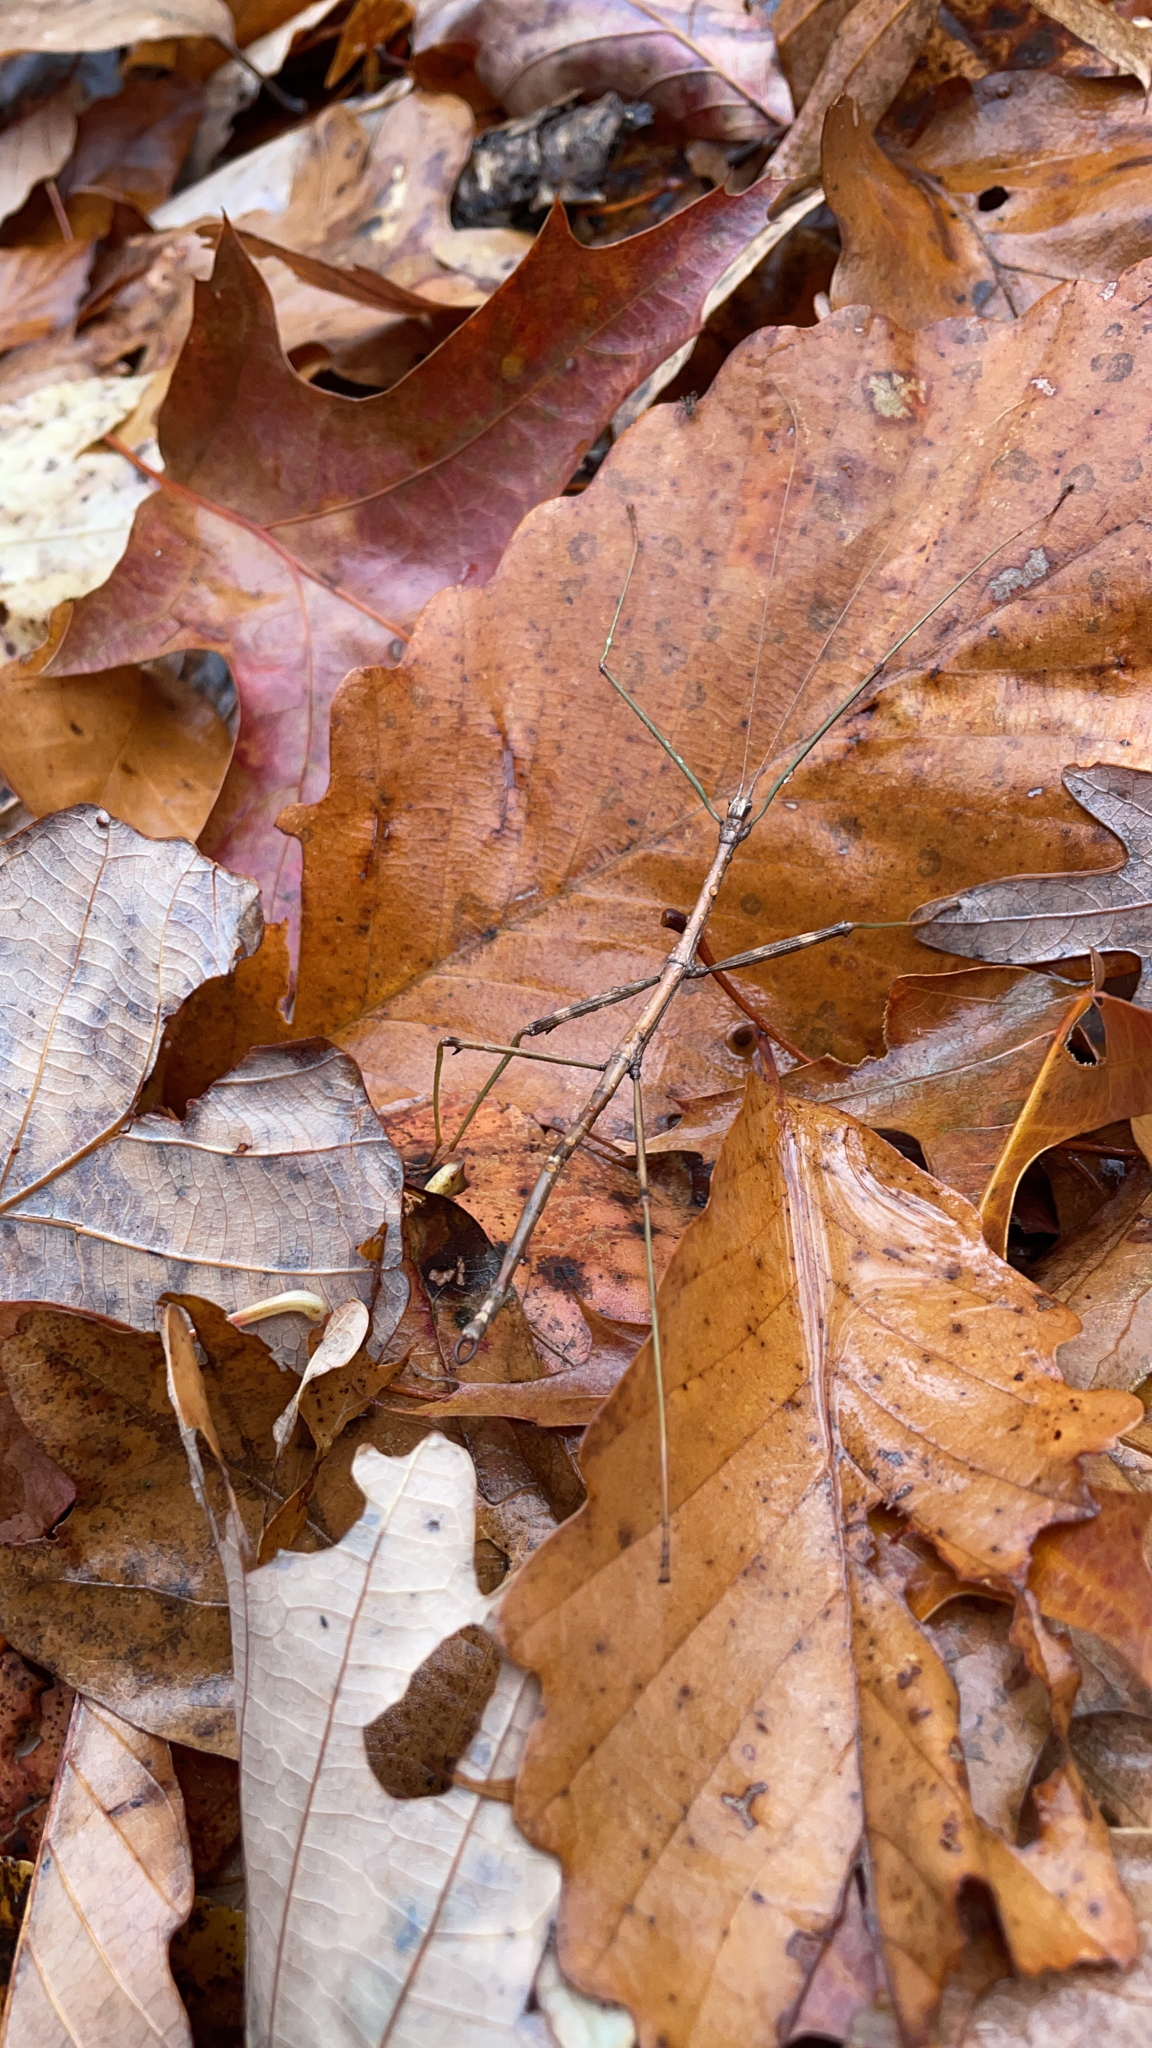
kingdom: Animalia
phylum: Arthropoda
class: Insecta
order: Phasmida
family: Diapheromeridae
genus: Diapheromera
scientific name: Diapheromera femorata
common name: Common american walkingstick
